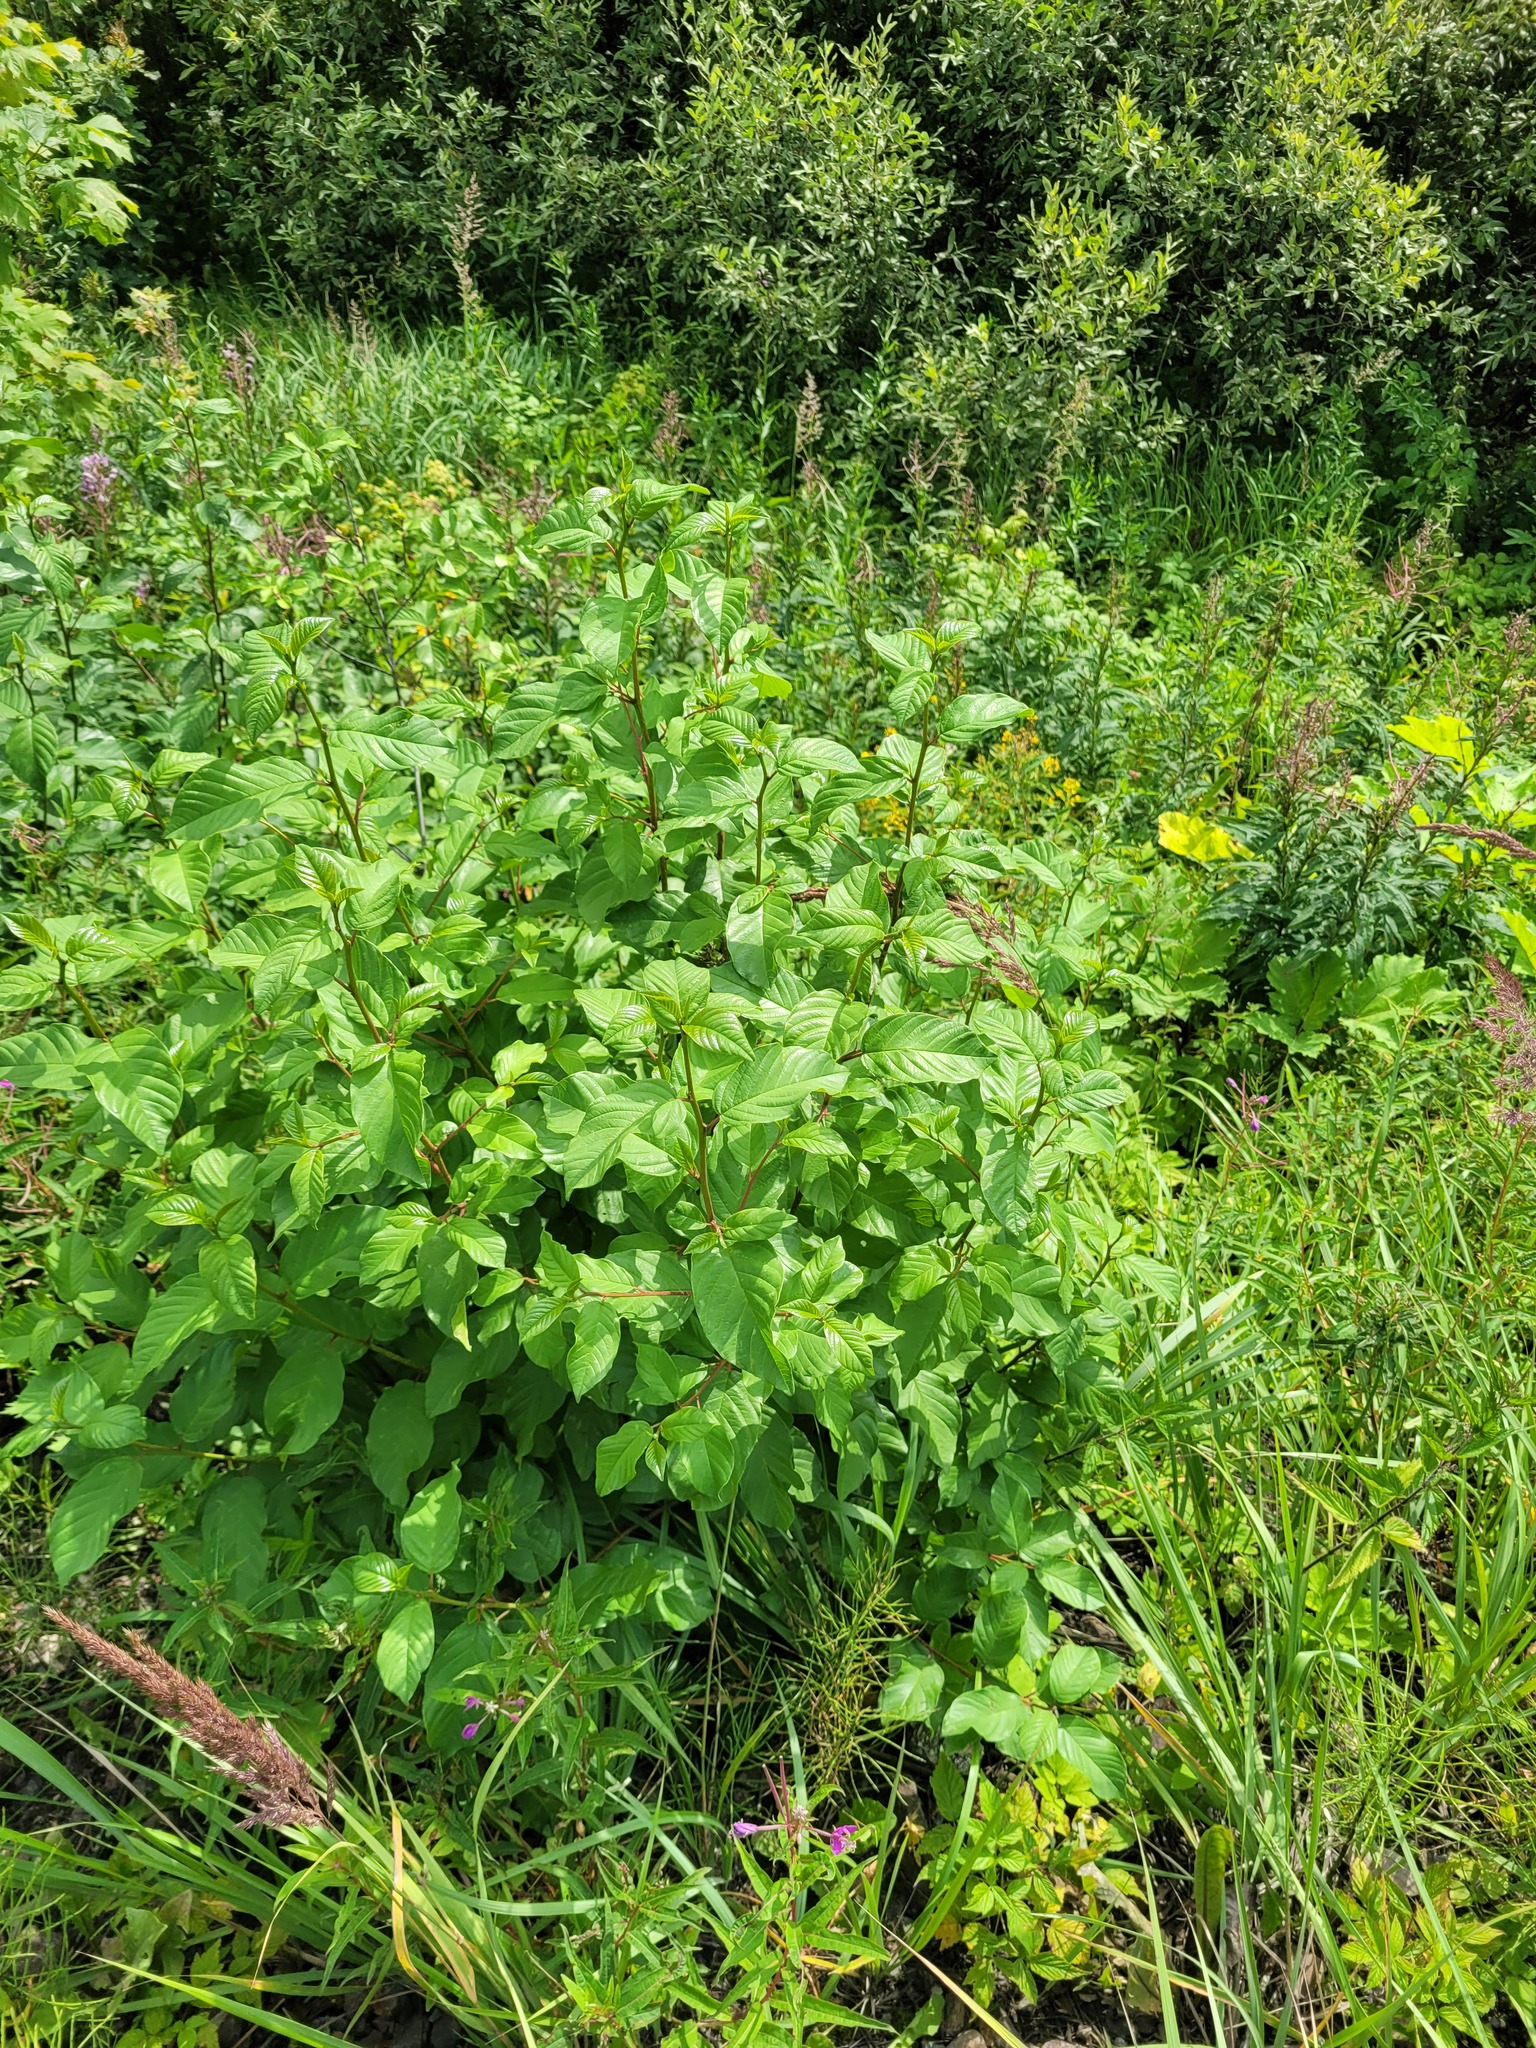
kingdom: Plantae
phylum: Tracheophyta
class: Magnoliopsida
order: Rosales
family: Rhamnaceae
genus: Frangula
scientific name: Frangula alnus
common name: Alder buckthorn
